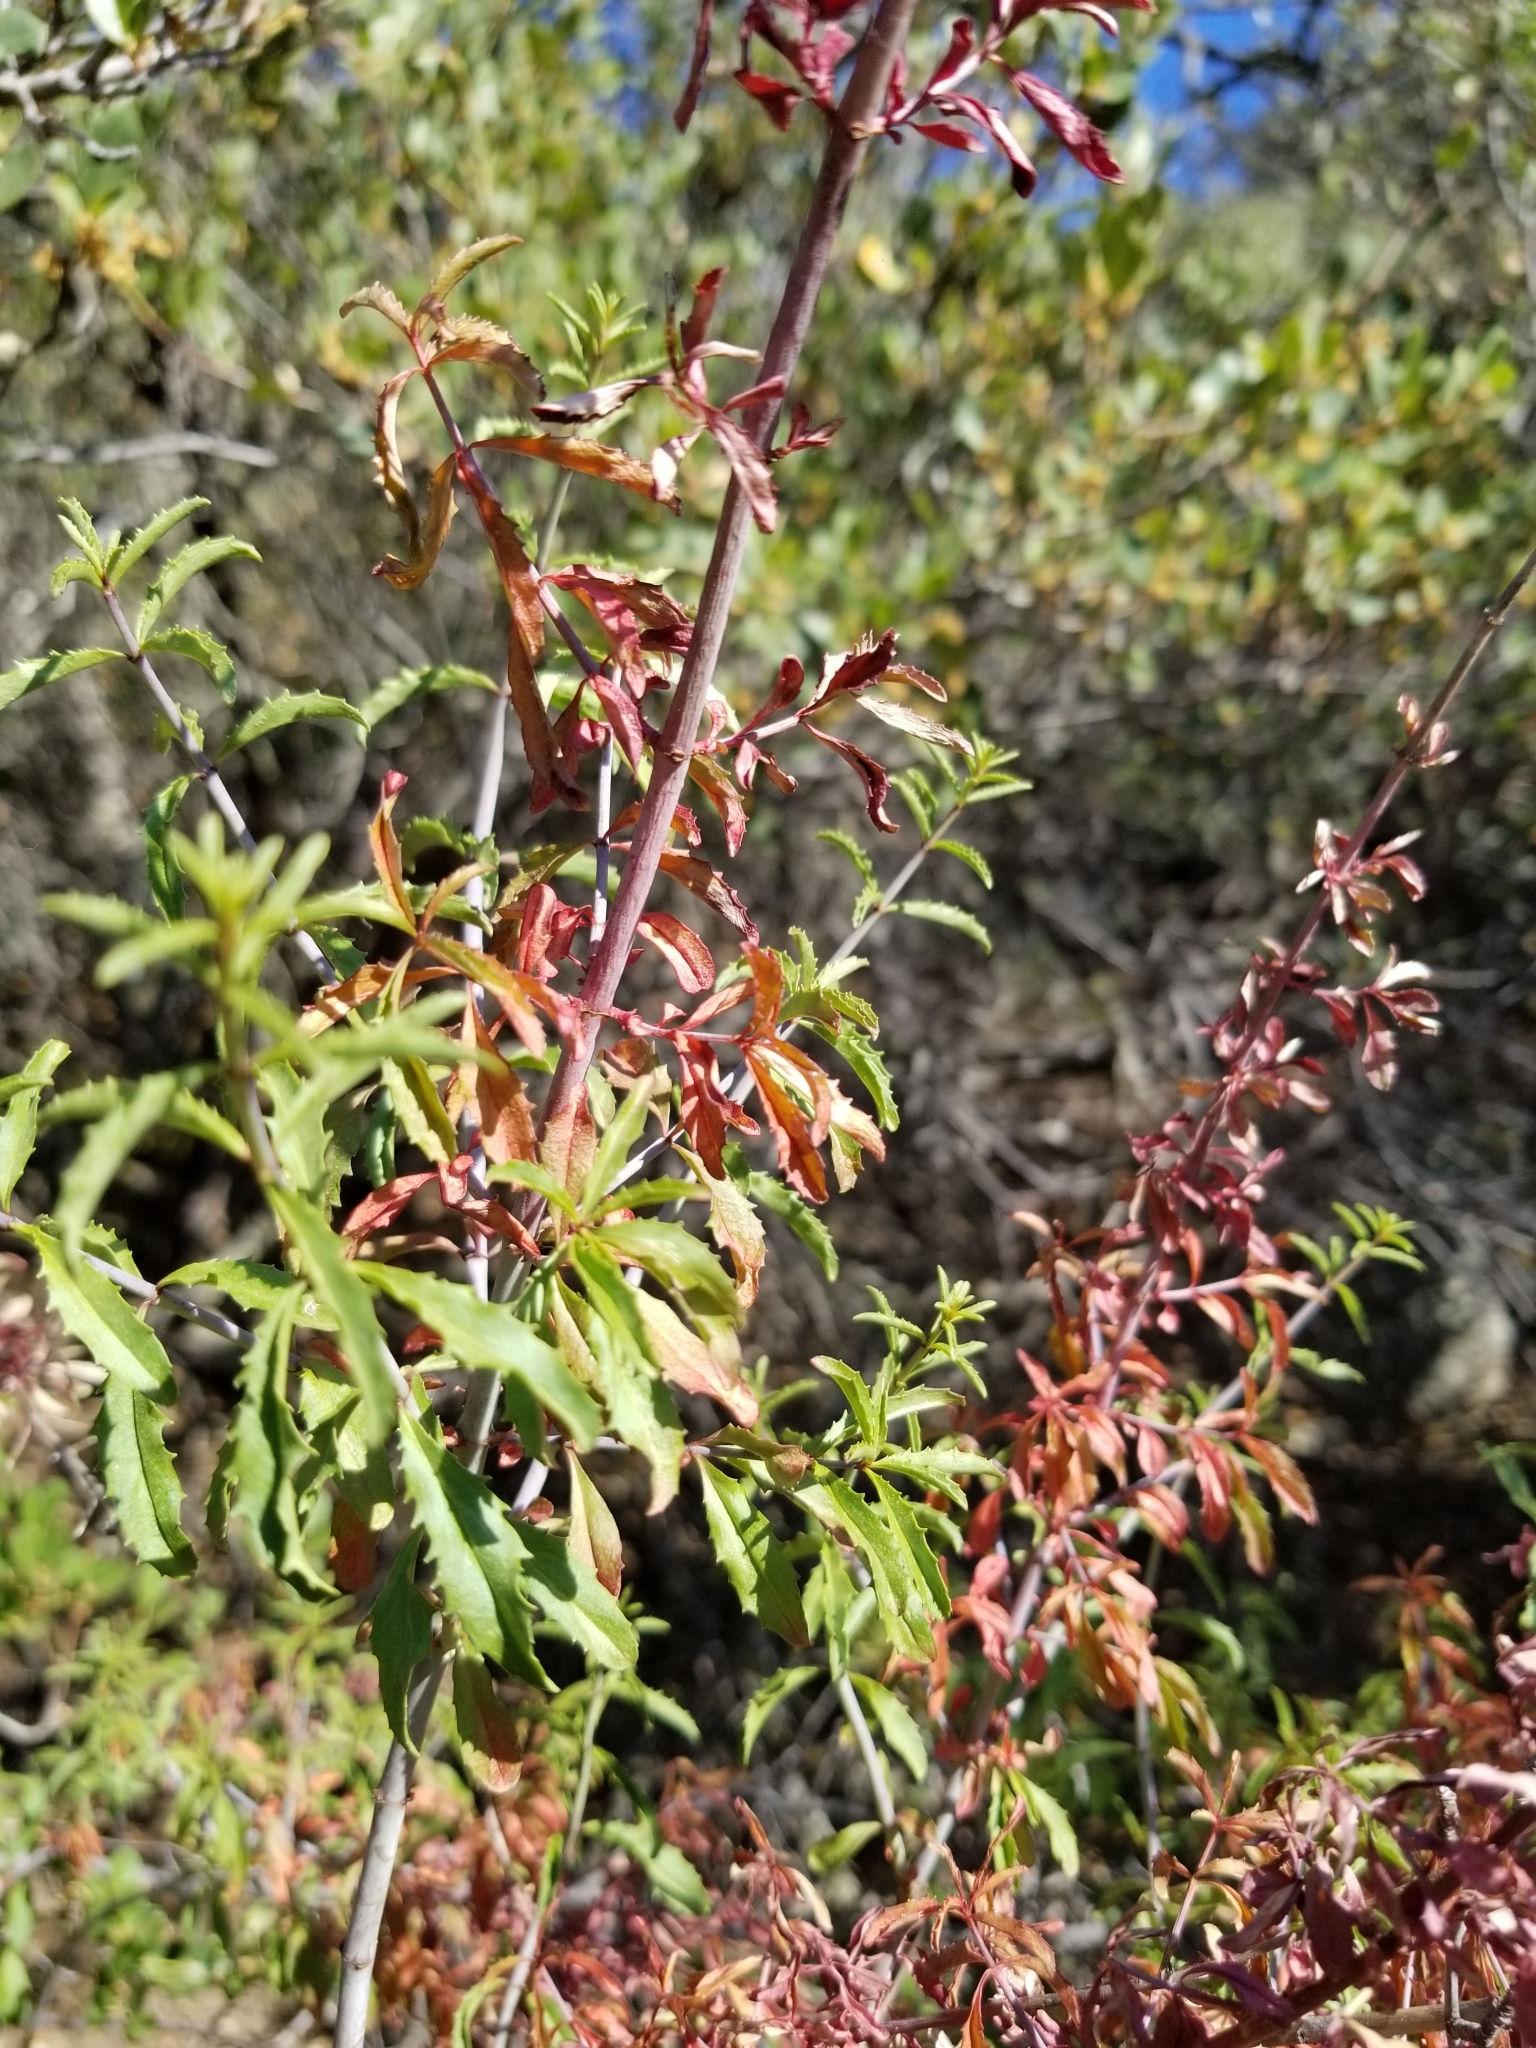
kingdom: Plantae
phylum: Tracheophyta
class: Magnoliopsida
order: Lamiales
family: Plantaginaceae
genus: Keckiella
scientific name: Keckiella ternata
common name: Scarlet keckiella
